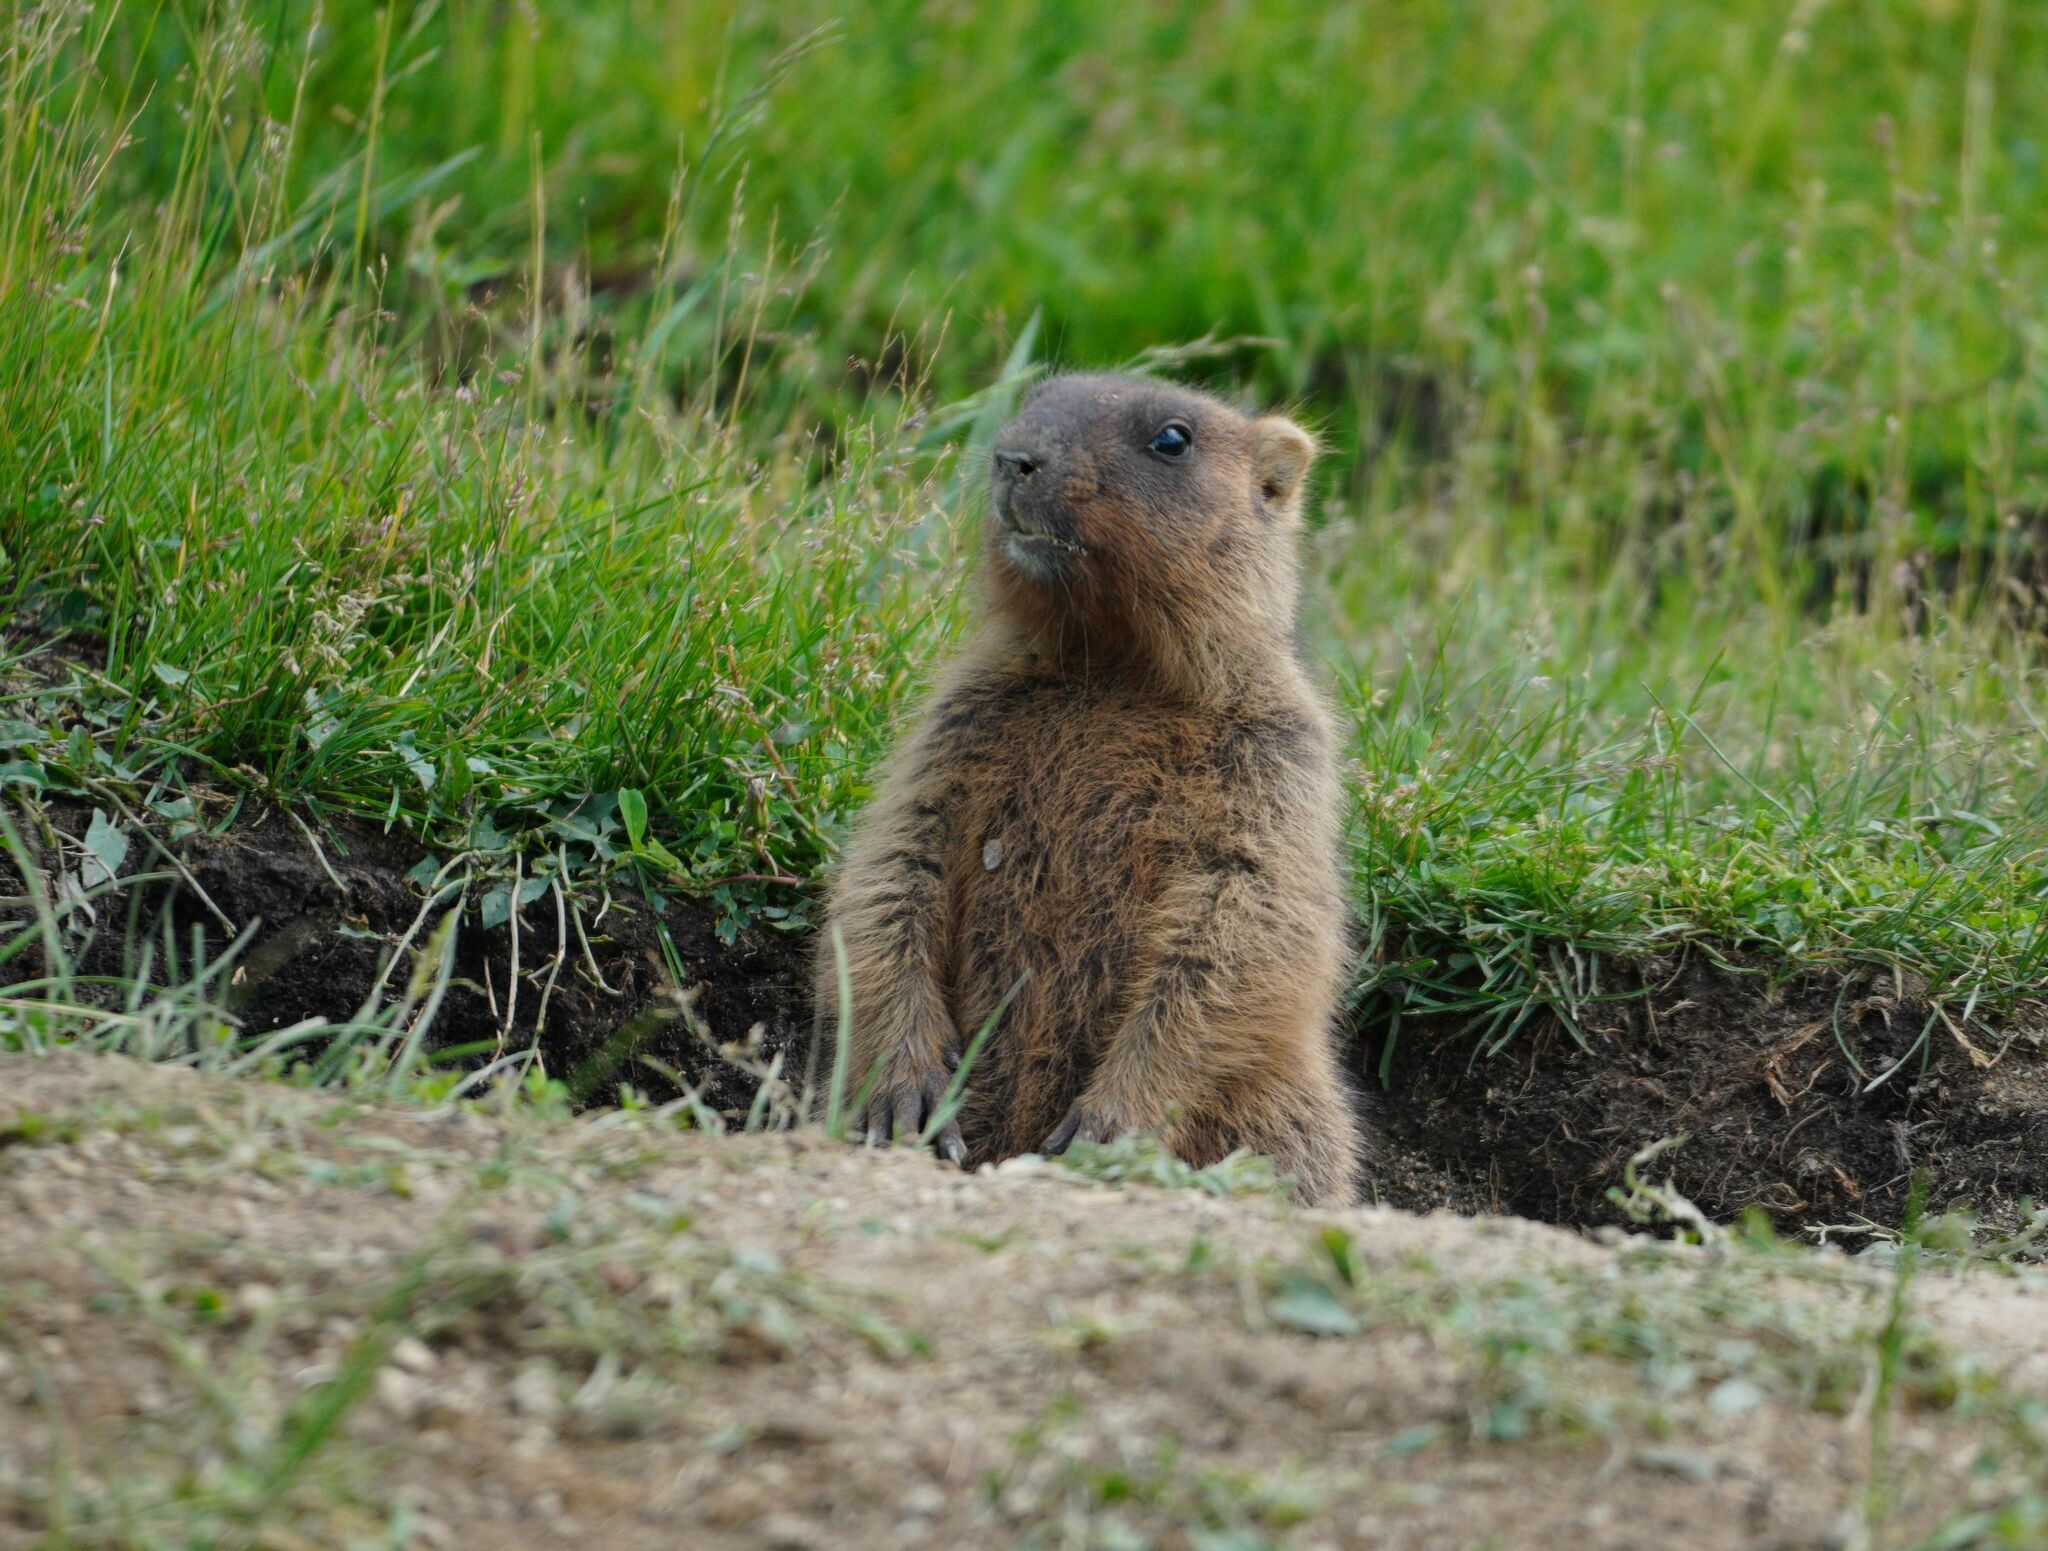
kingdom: Animalia
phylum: Chordata
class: Mammalia
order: Rodentia
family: Sciuridae
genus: Marmota
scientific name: Marmota bobak
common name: Bobak marmot
